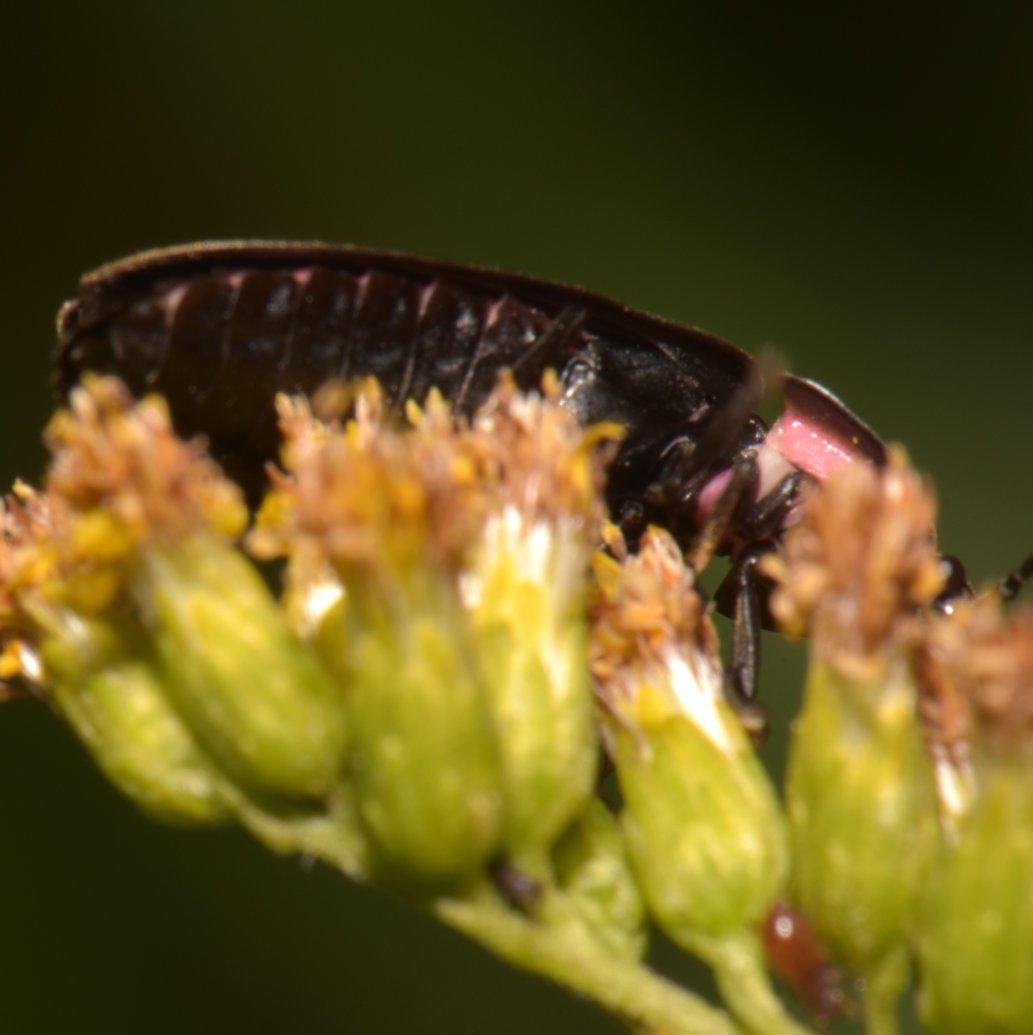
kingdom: Animalia
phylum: Arthropoda
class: Insecta
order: Coleoptera
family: Lampyridae
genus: Photinus
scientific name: Photinus corrusca
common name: Winter firefly
